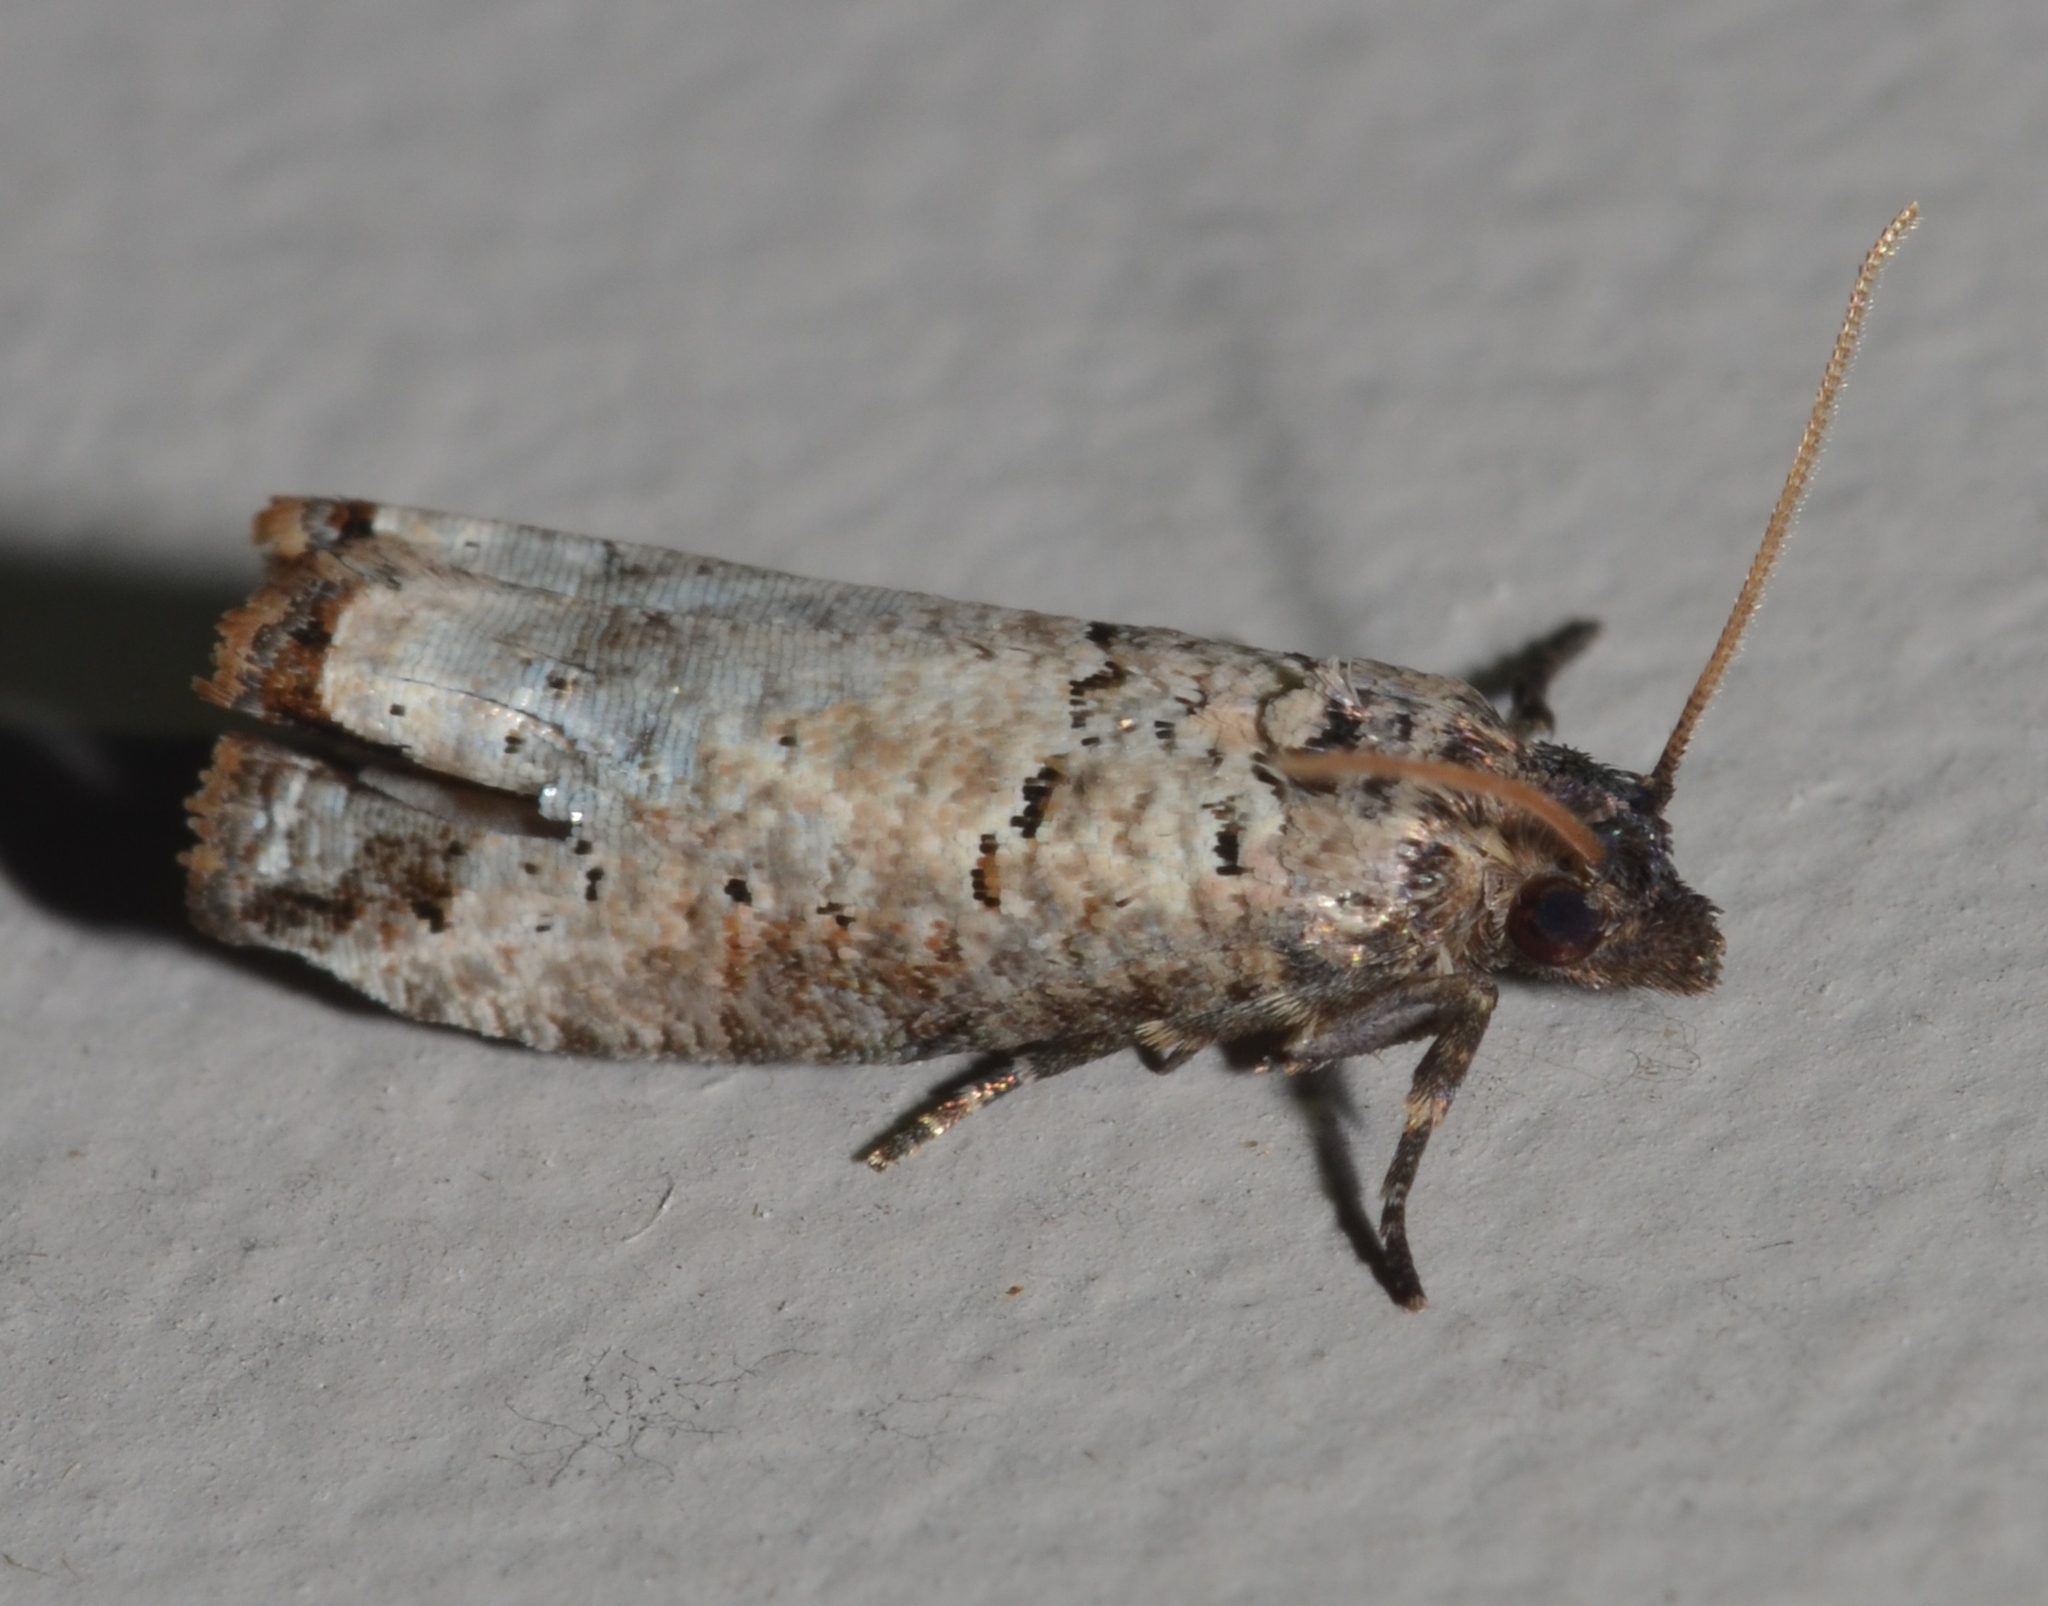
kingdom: Animalia
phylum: Arthropoda
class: Insecta
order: Lepidoptera
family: Tortricidae
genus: Notocelia
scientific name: Notocelia culminana
